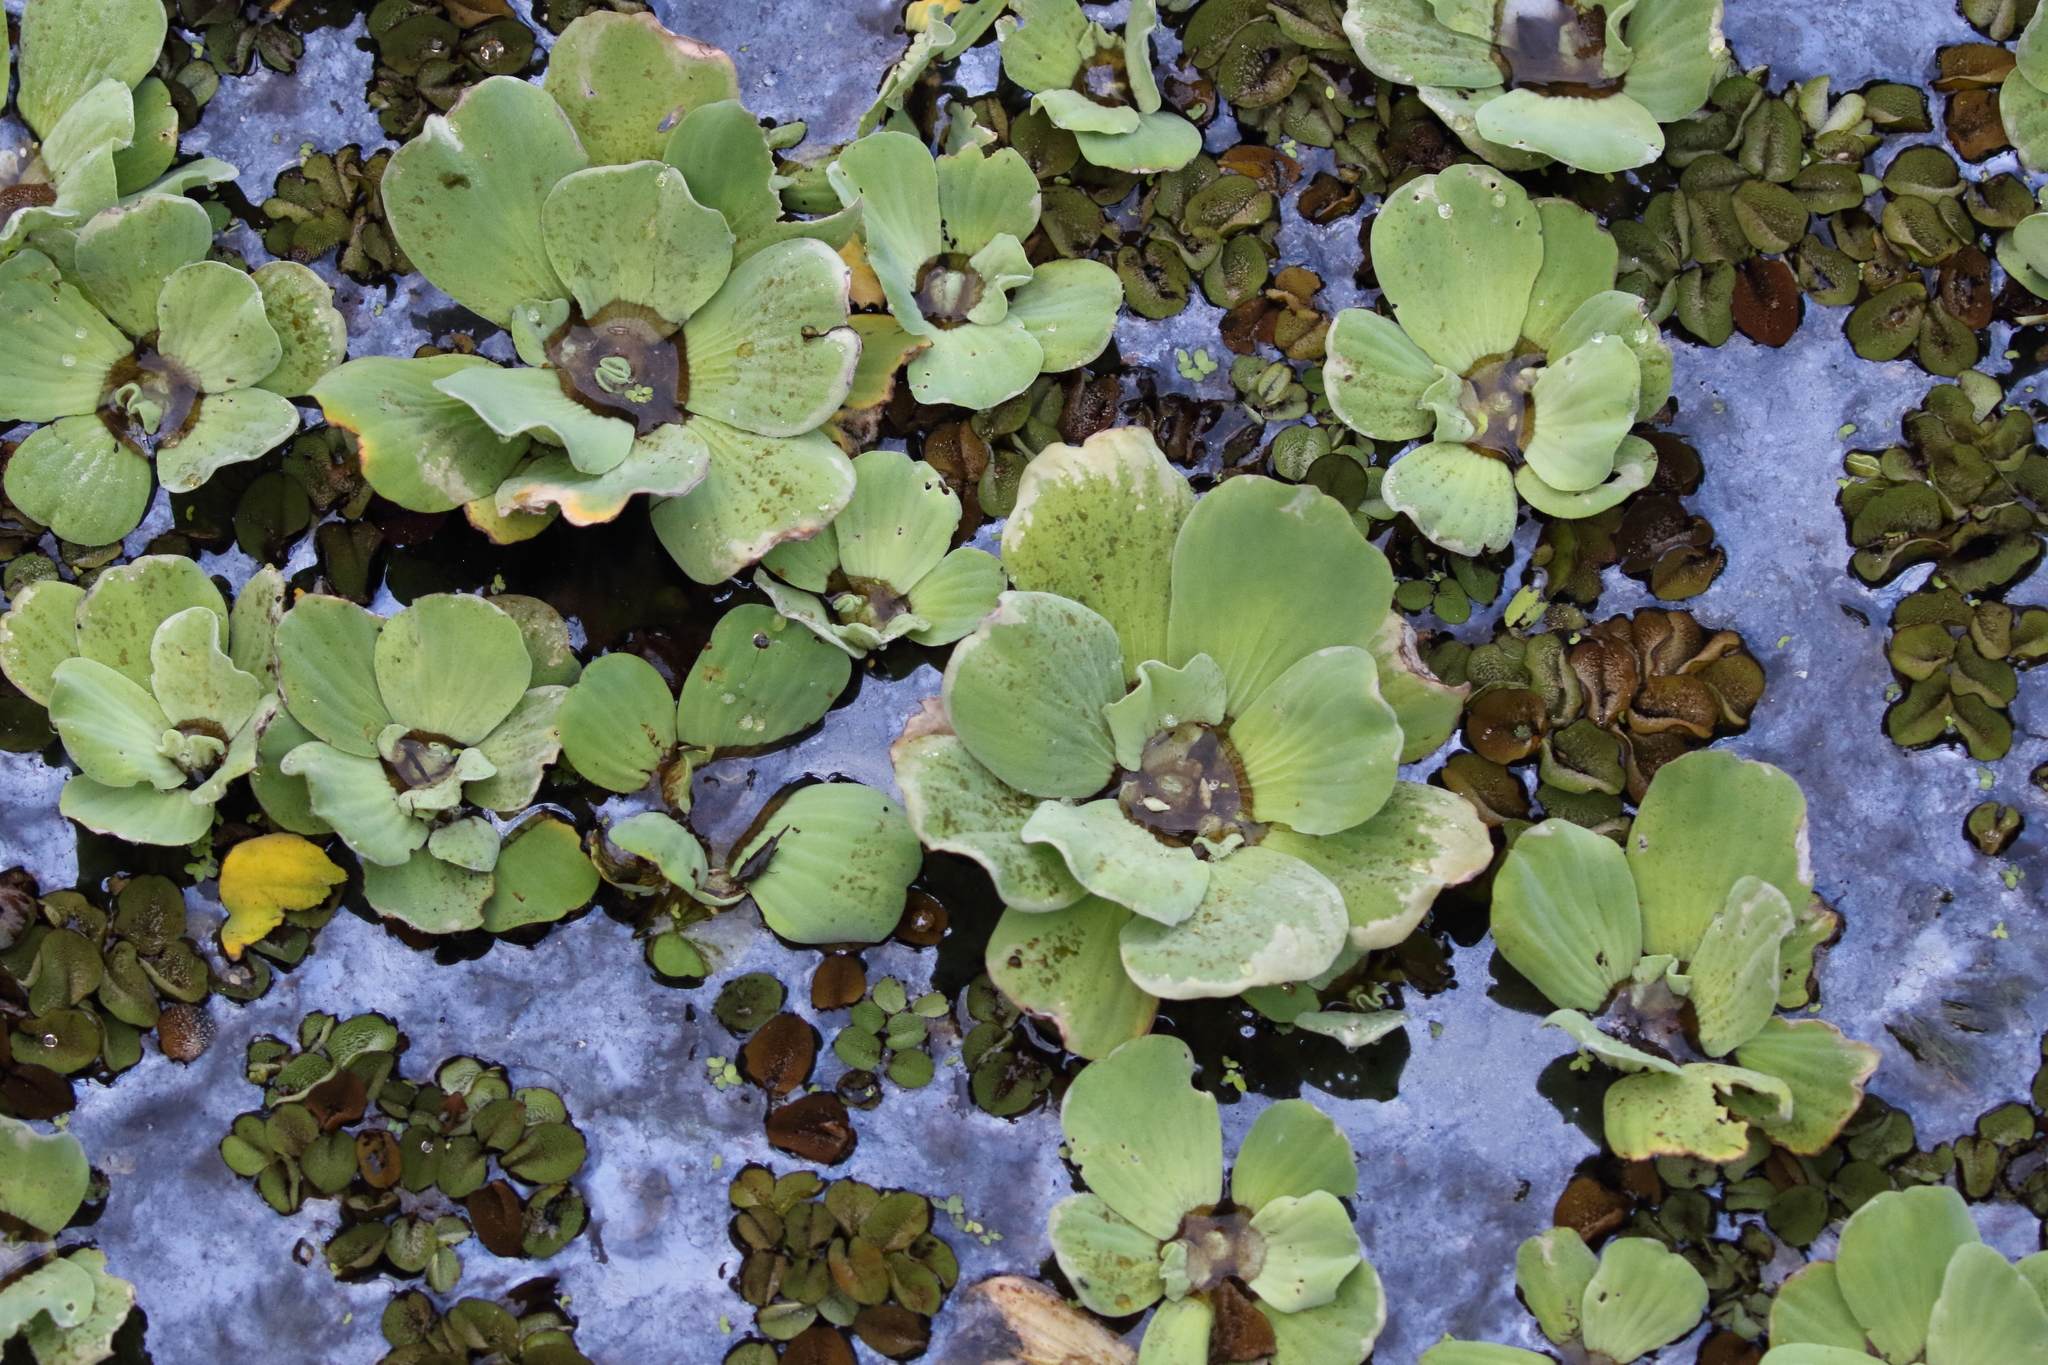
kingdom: Plantae
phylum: Tracheophyta
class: Liliopsida
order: Alismatales
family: Araceae
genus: Pistia
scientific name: Pistia stratiotes
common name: Water lettuce
